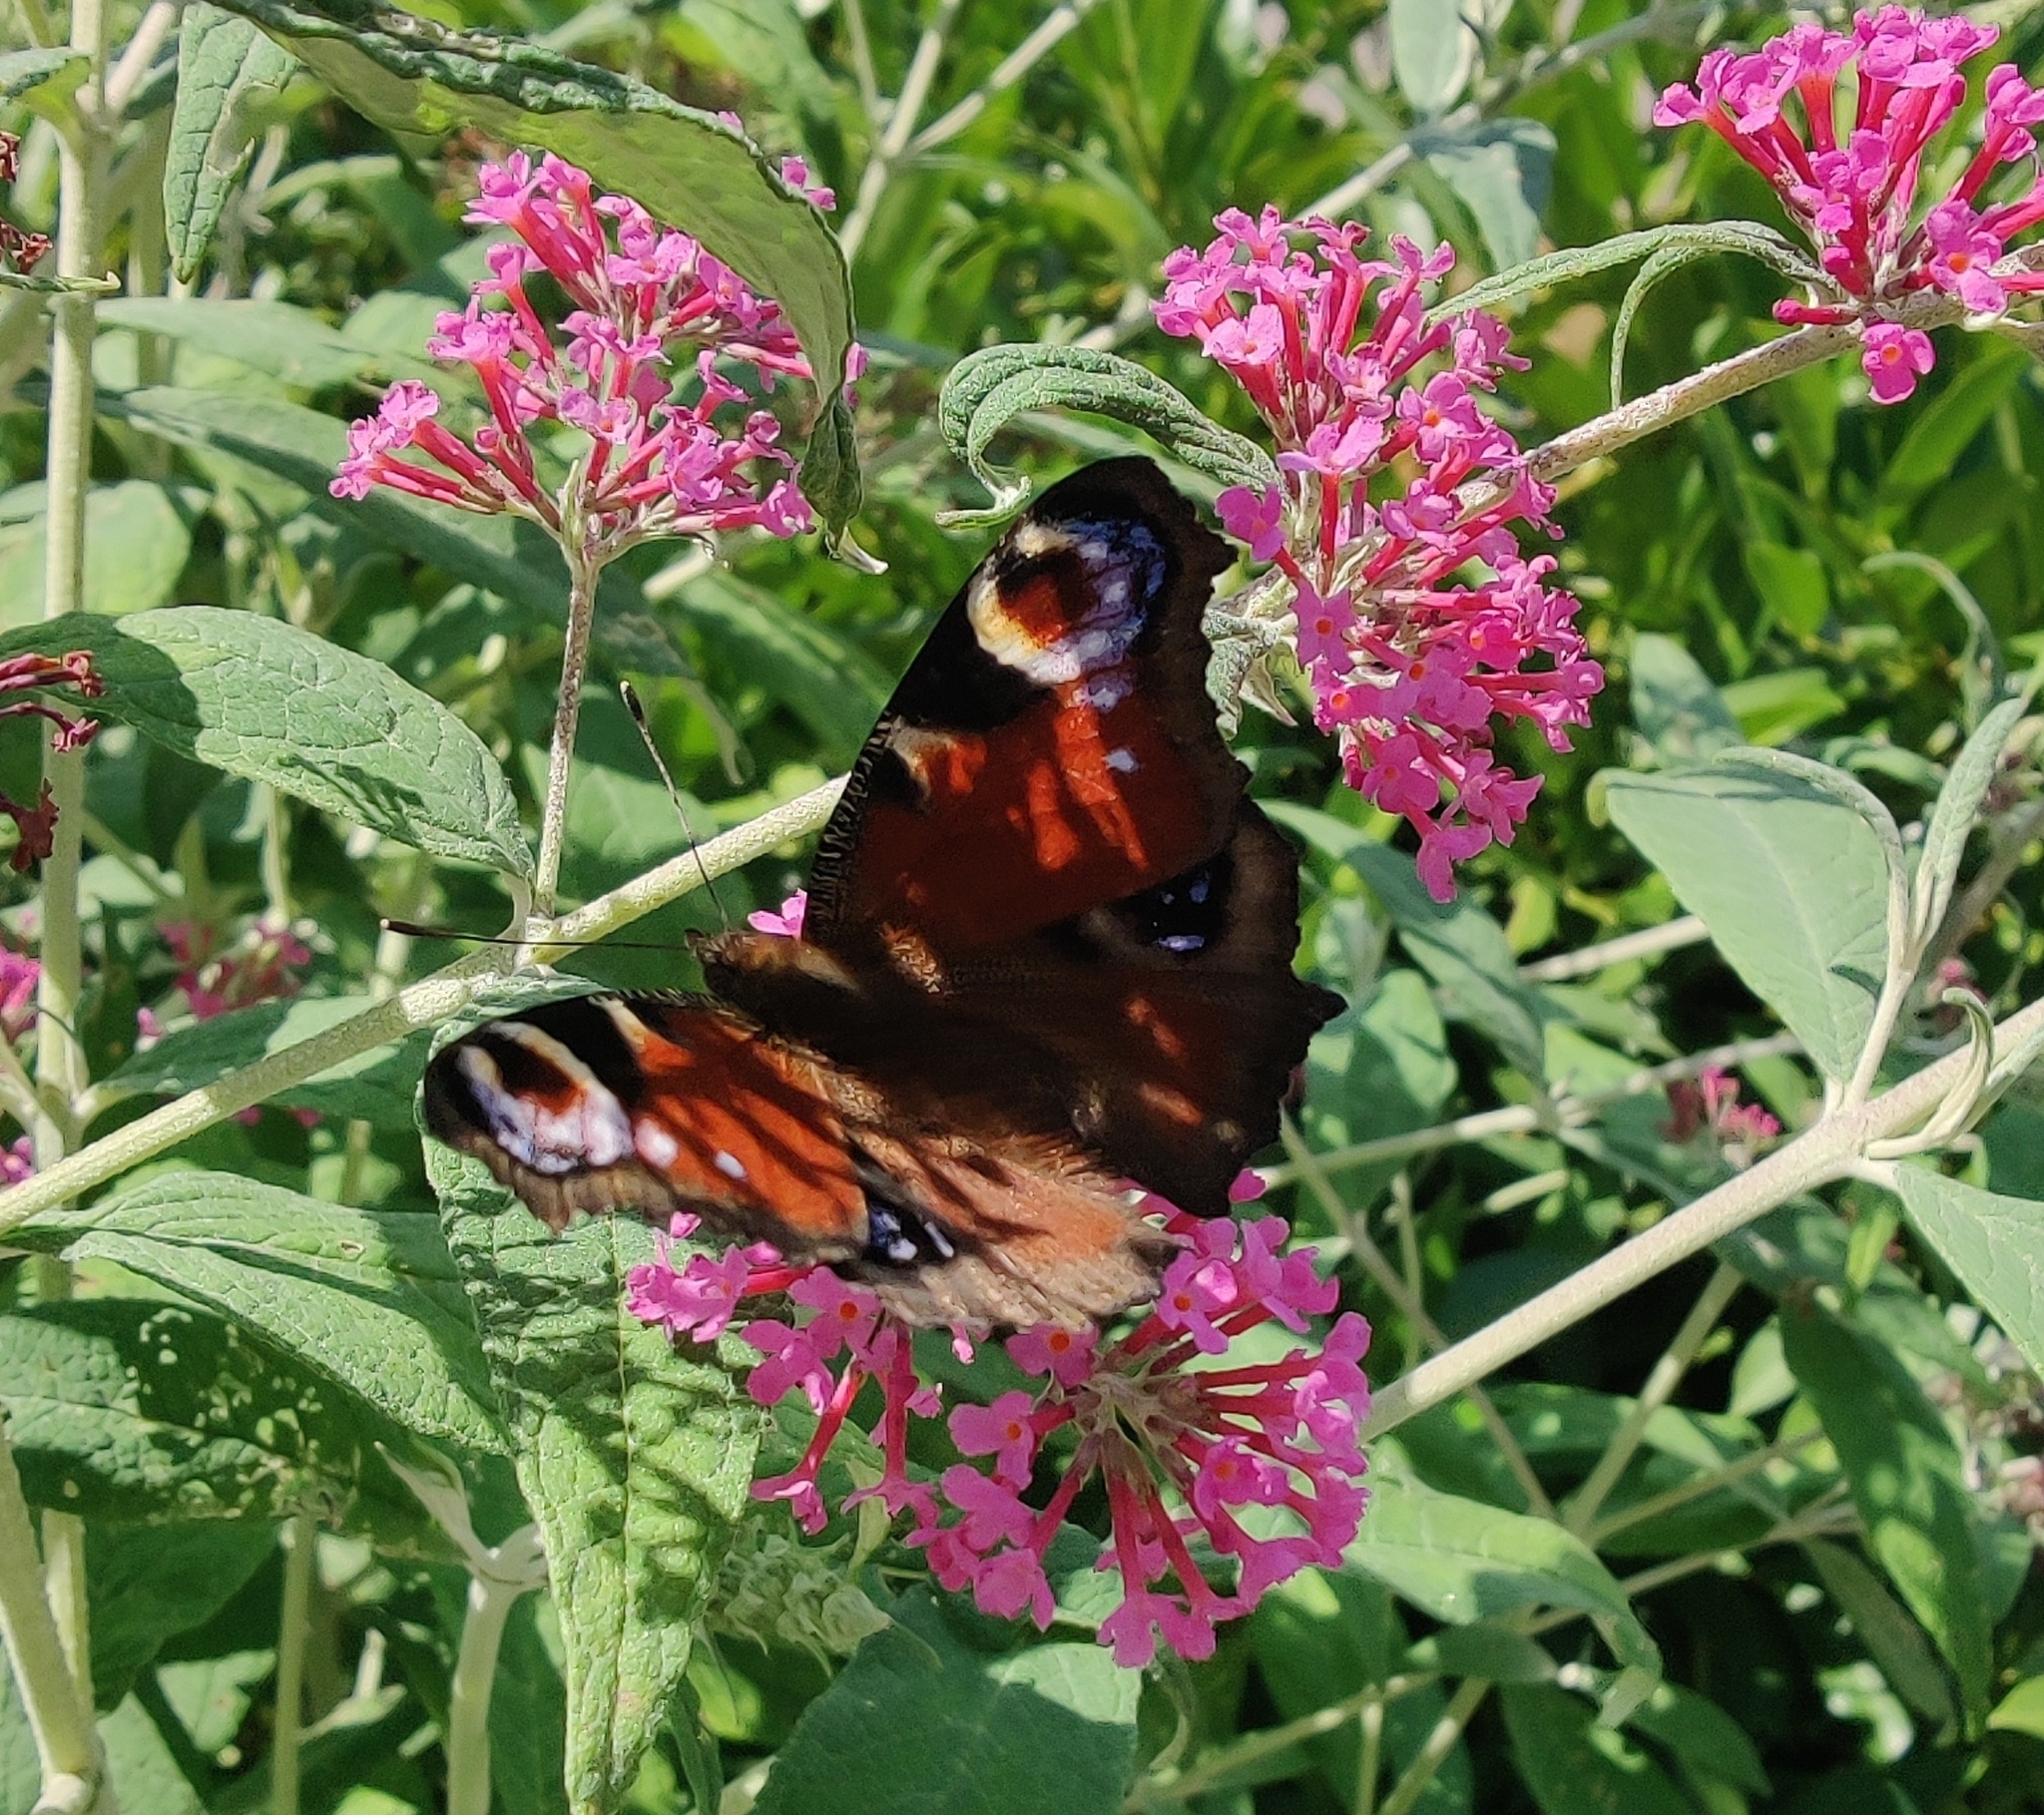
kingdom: Animalia
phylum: Arthropoda
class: Insecta
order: Lepidoptera
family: Nymphalidae
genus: Aglais
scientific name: Aglais io
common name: Peacock
